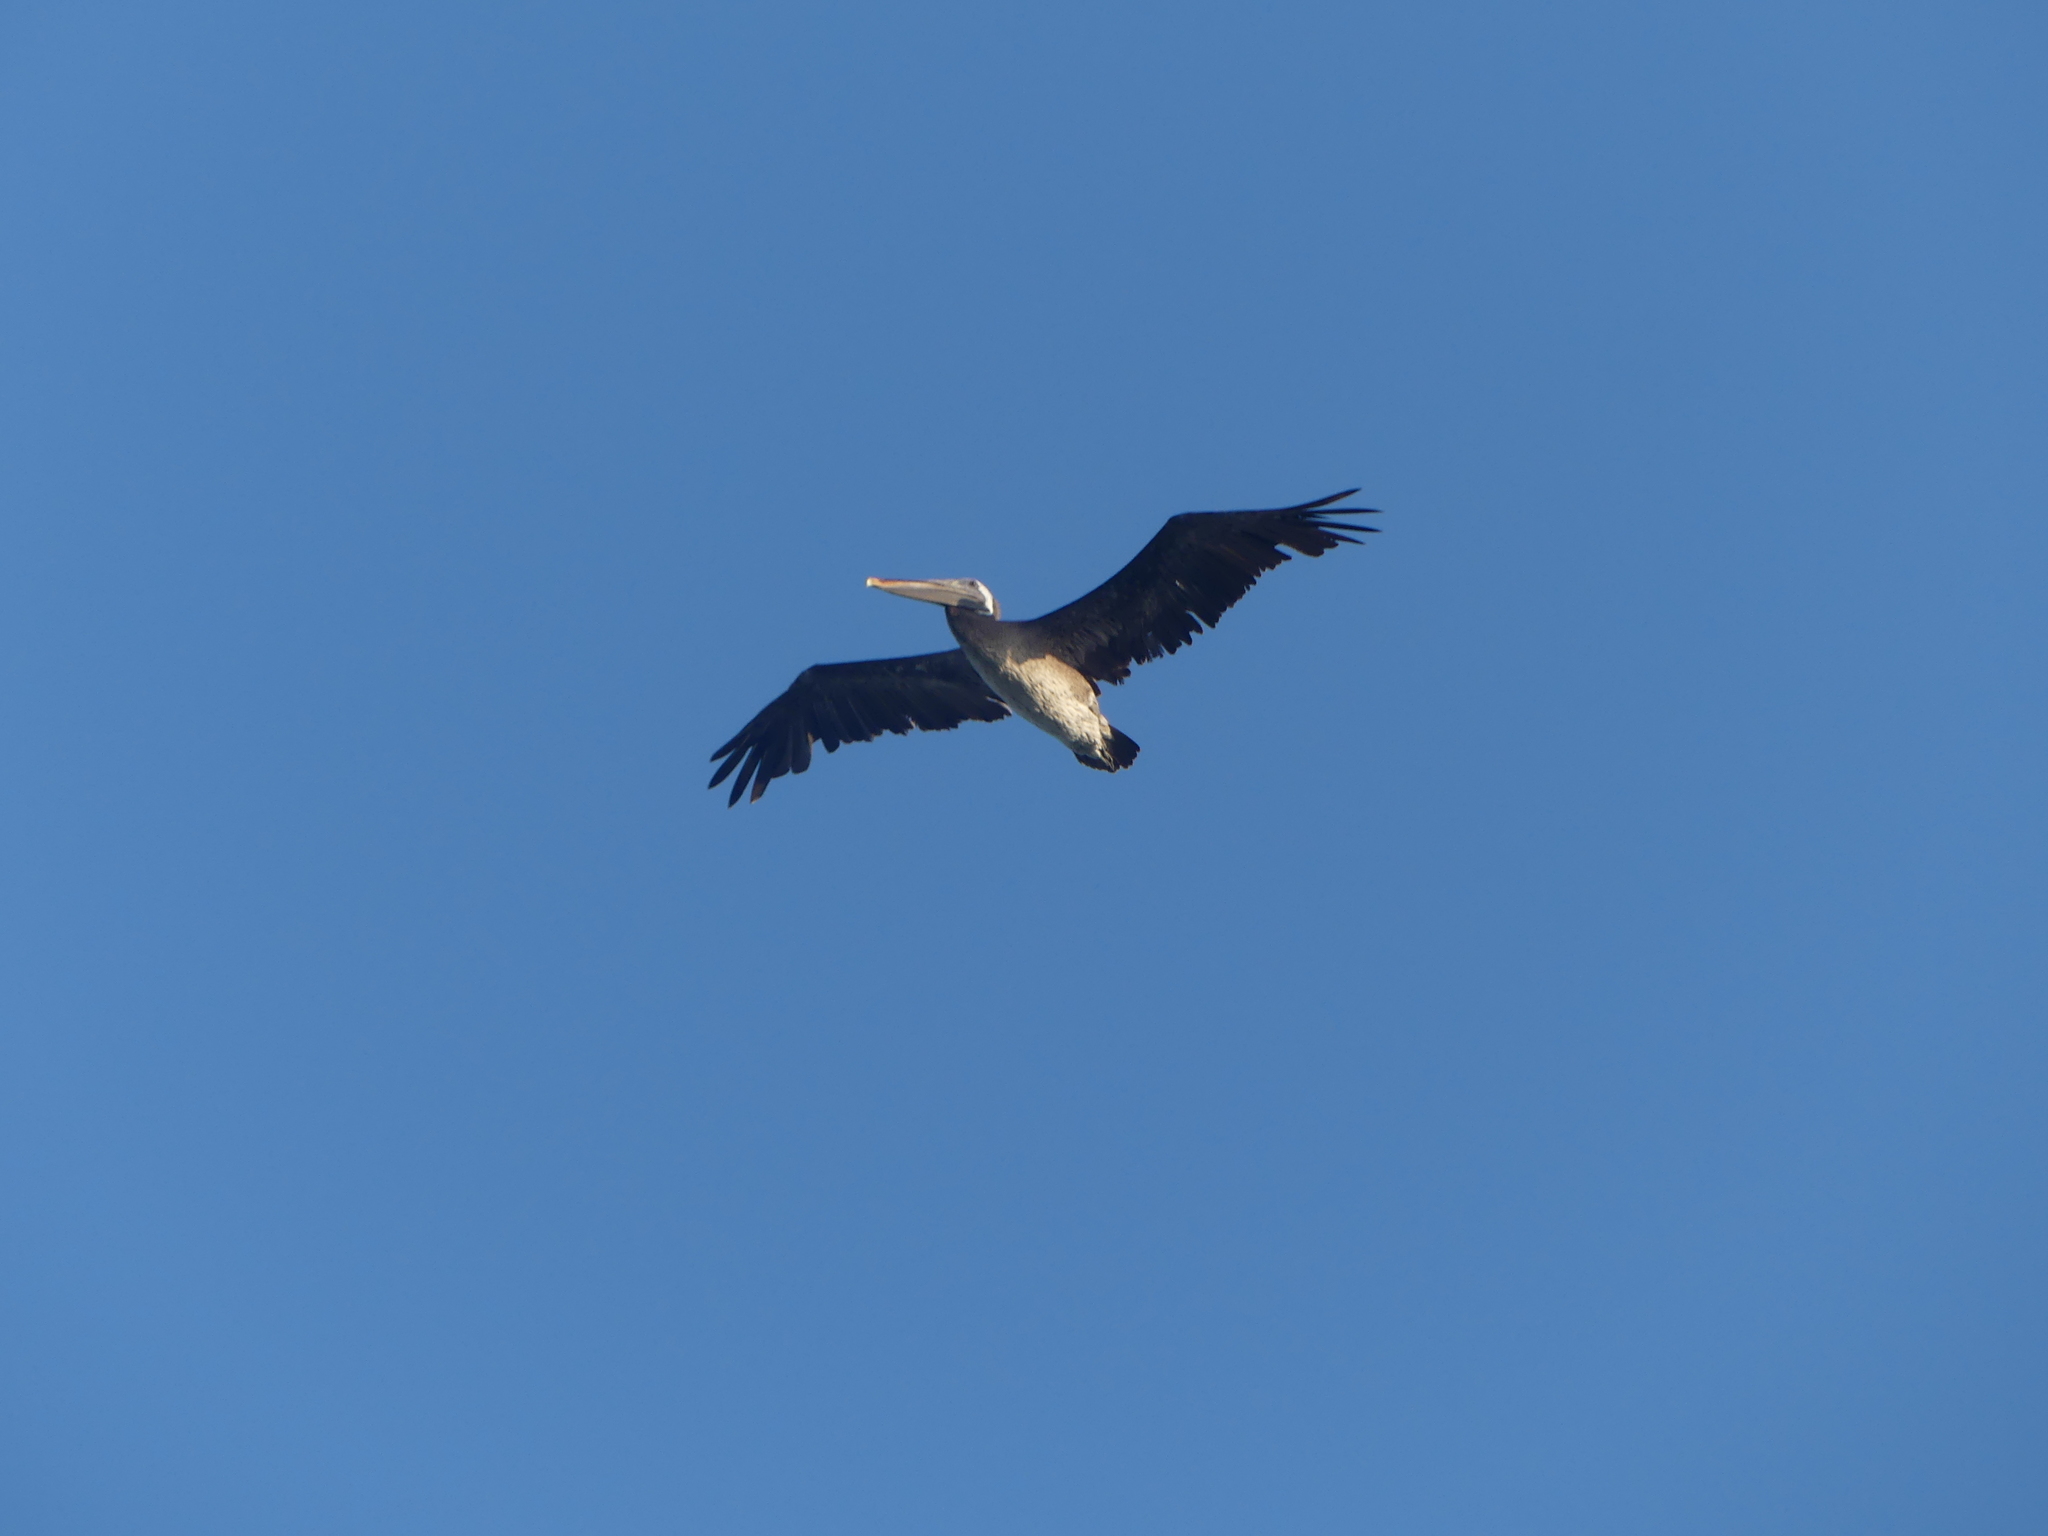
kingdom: Animalia
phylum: Chordata
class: Aves
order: Pelecaniformes
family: Pelecanidae
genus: Pelecanus
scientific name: Pelecanus occidentalis
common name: Brown pelican
